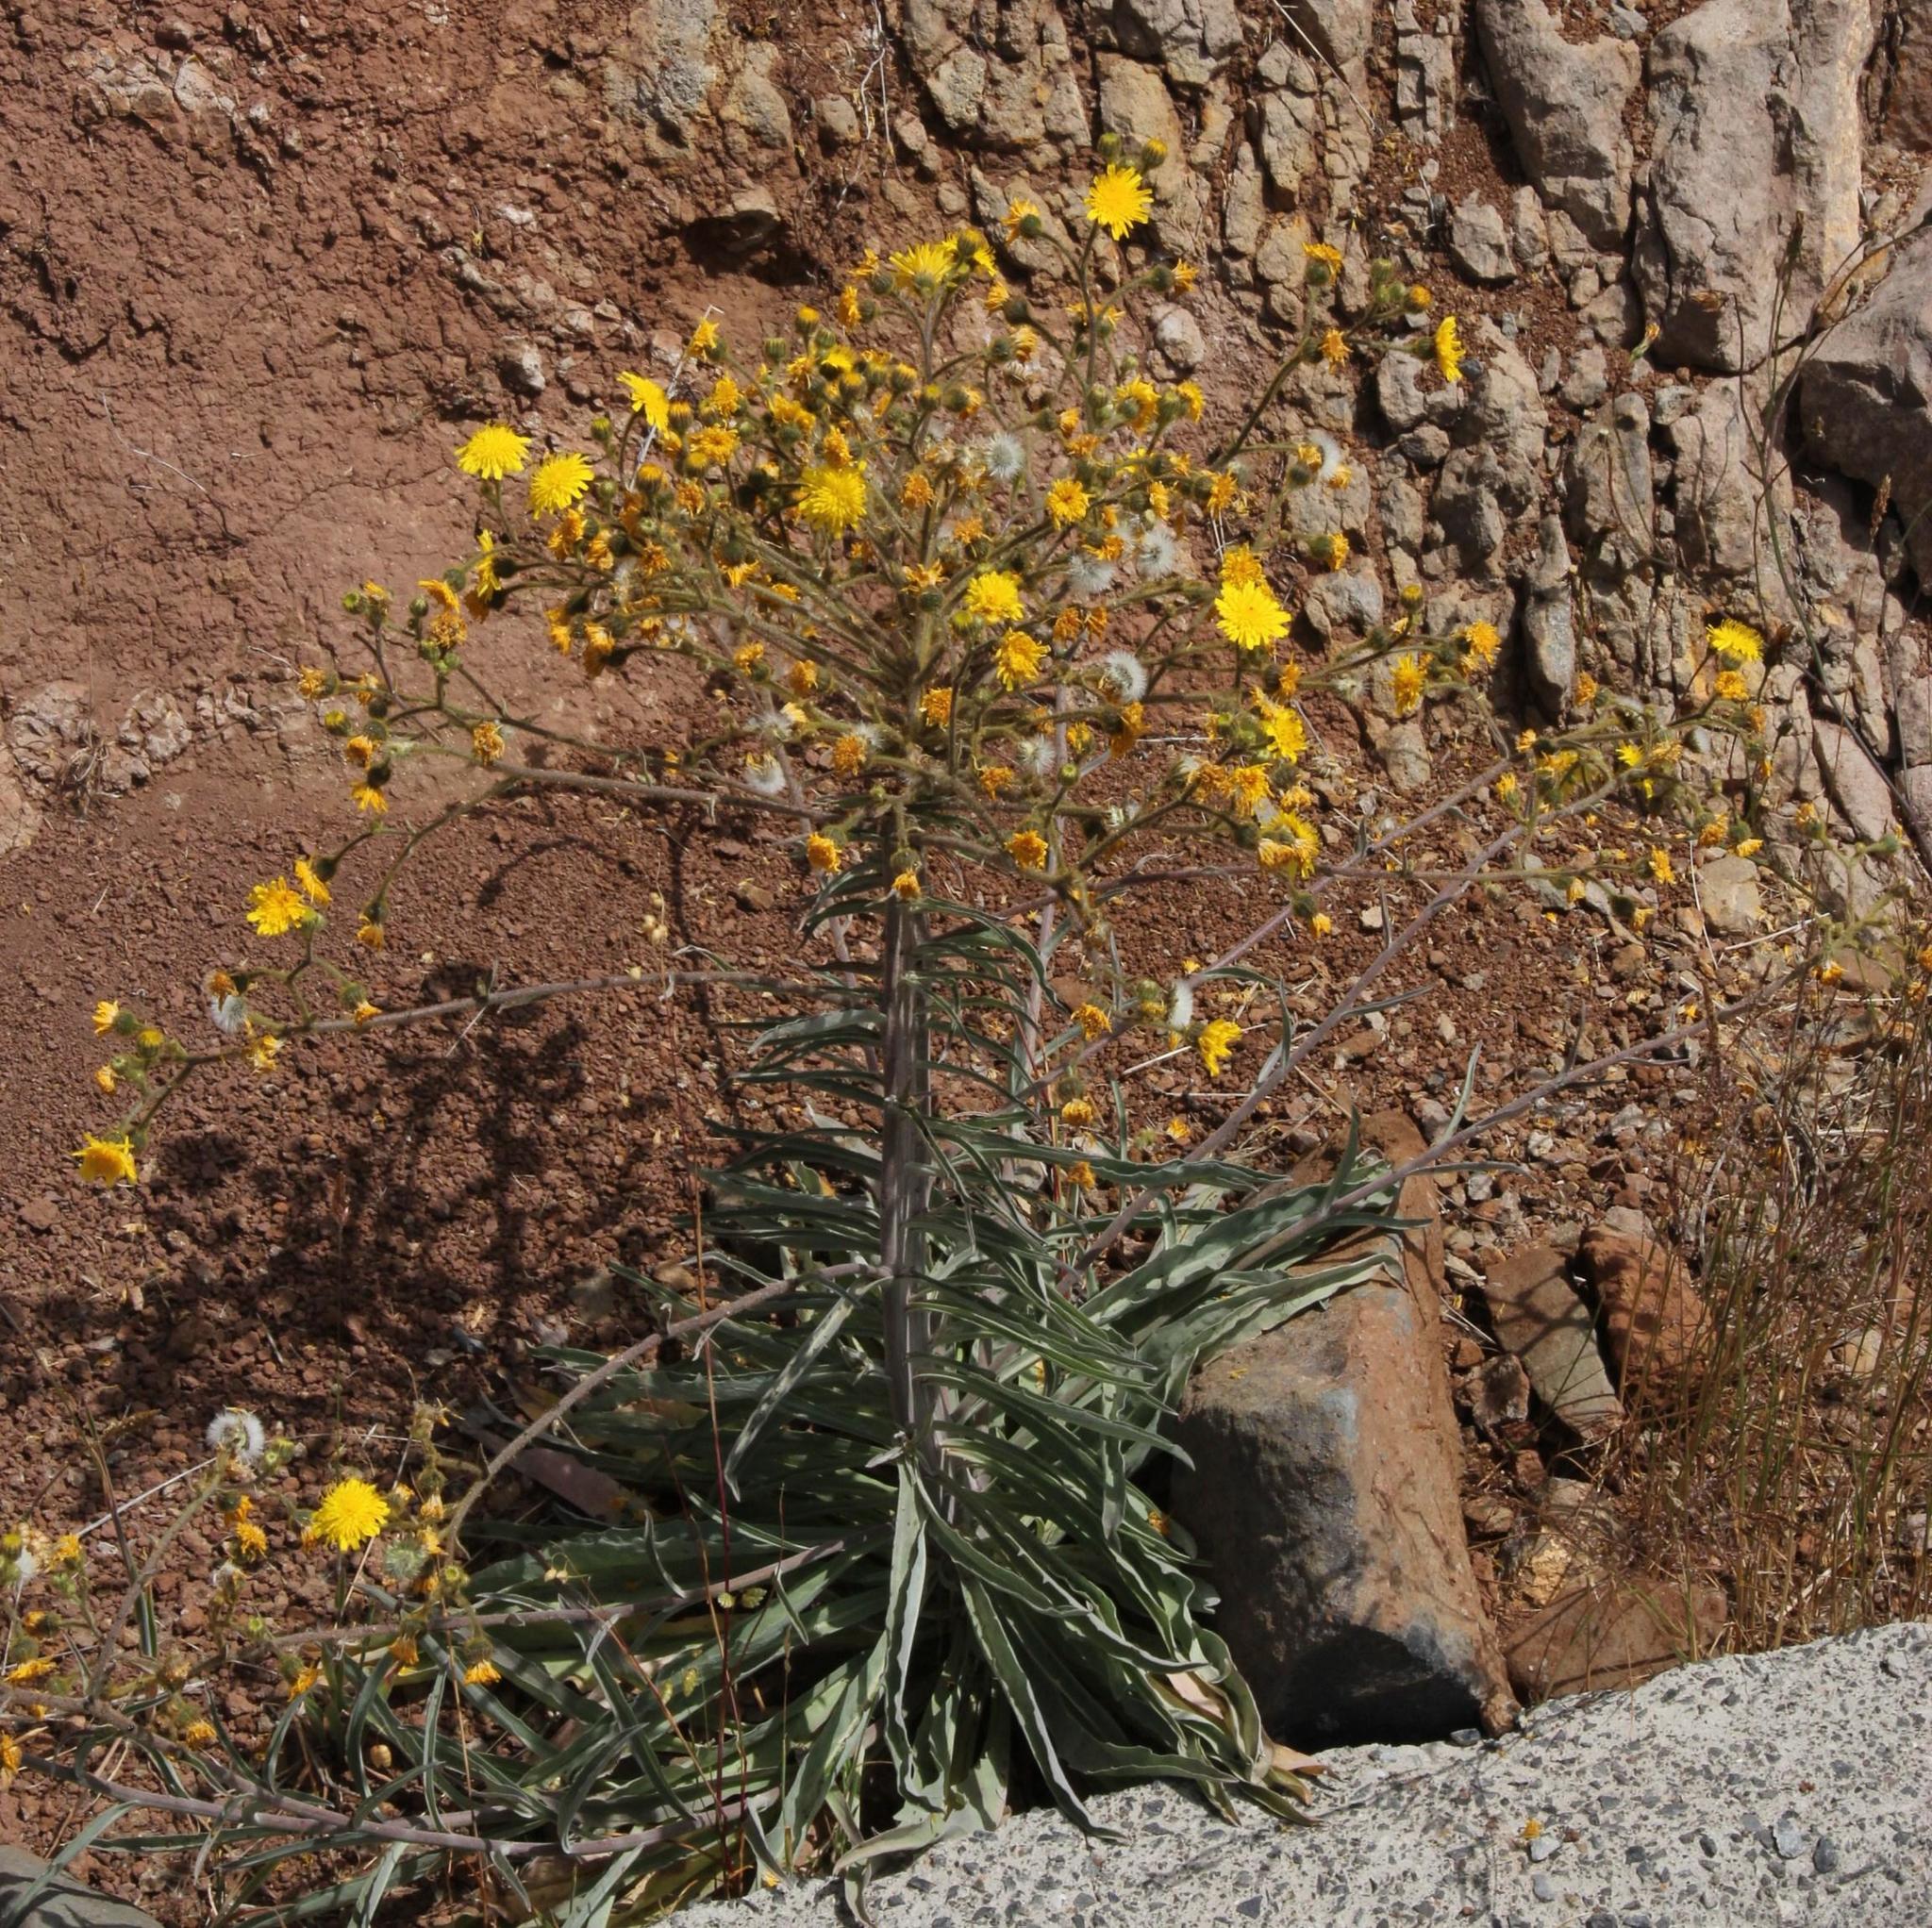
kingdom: Plantae
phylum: Tracheophyta
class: Magnoliopsida
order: Asterales
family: Asteraceae
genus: Andryala
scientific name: Andryala glandulosa
